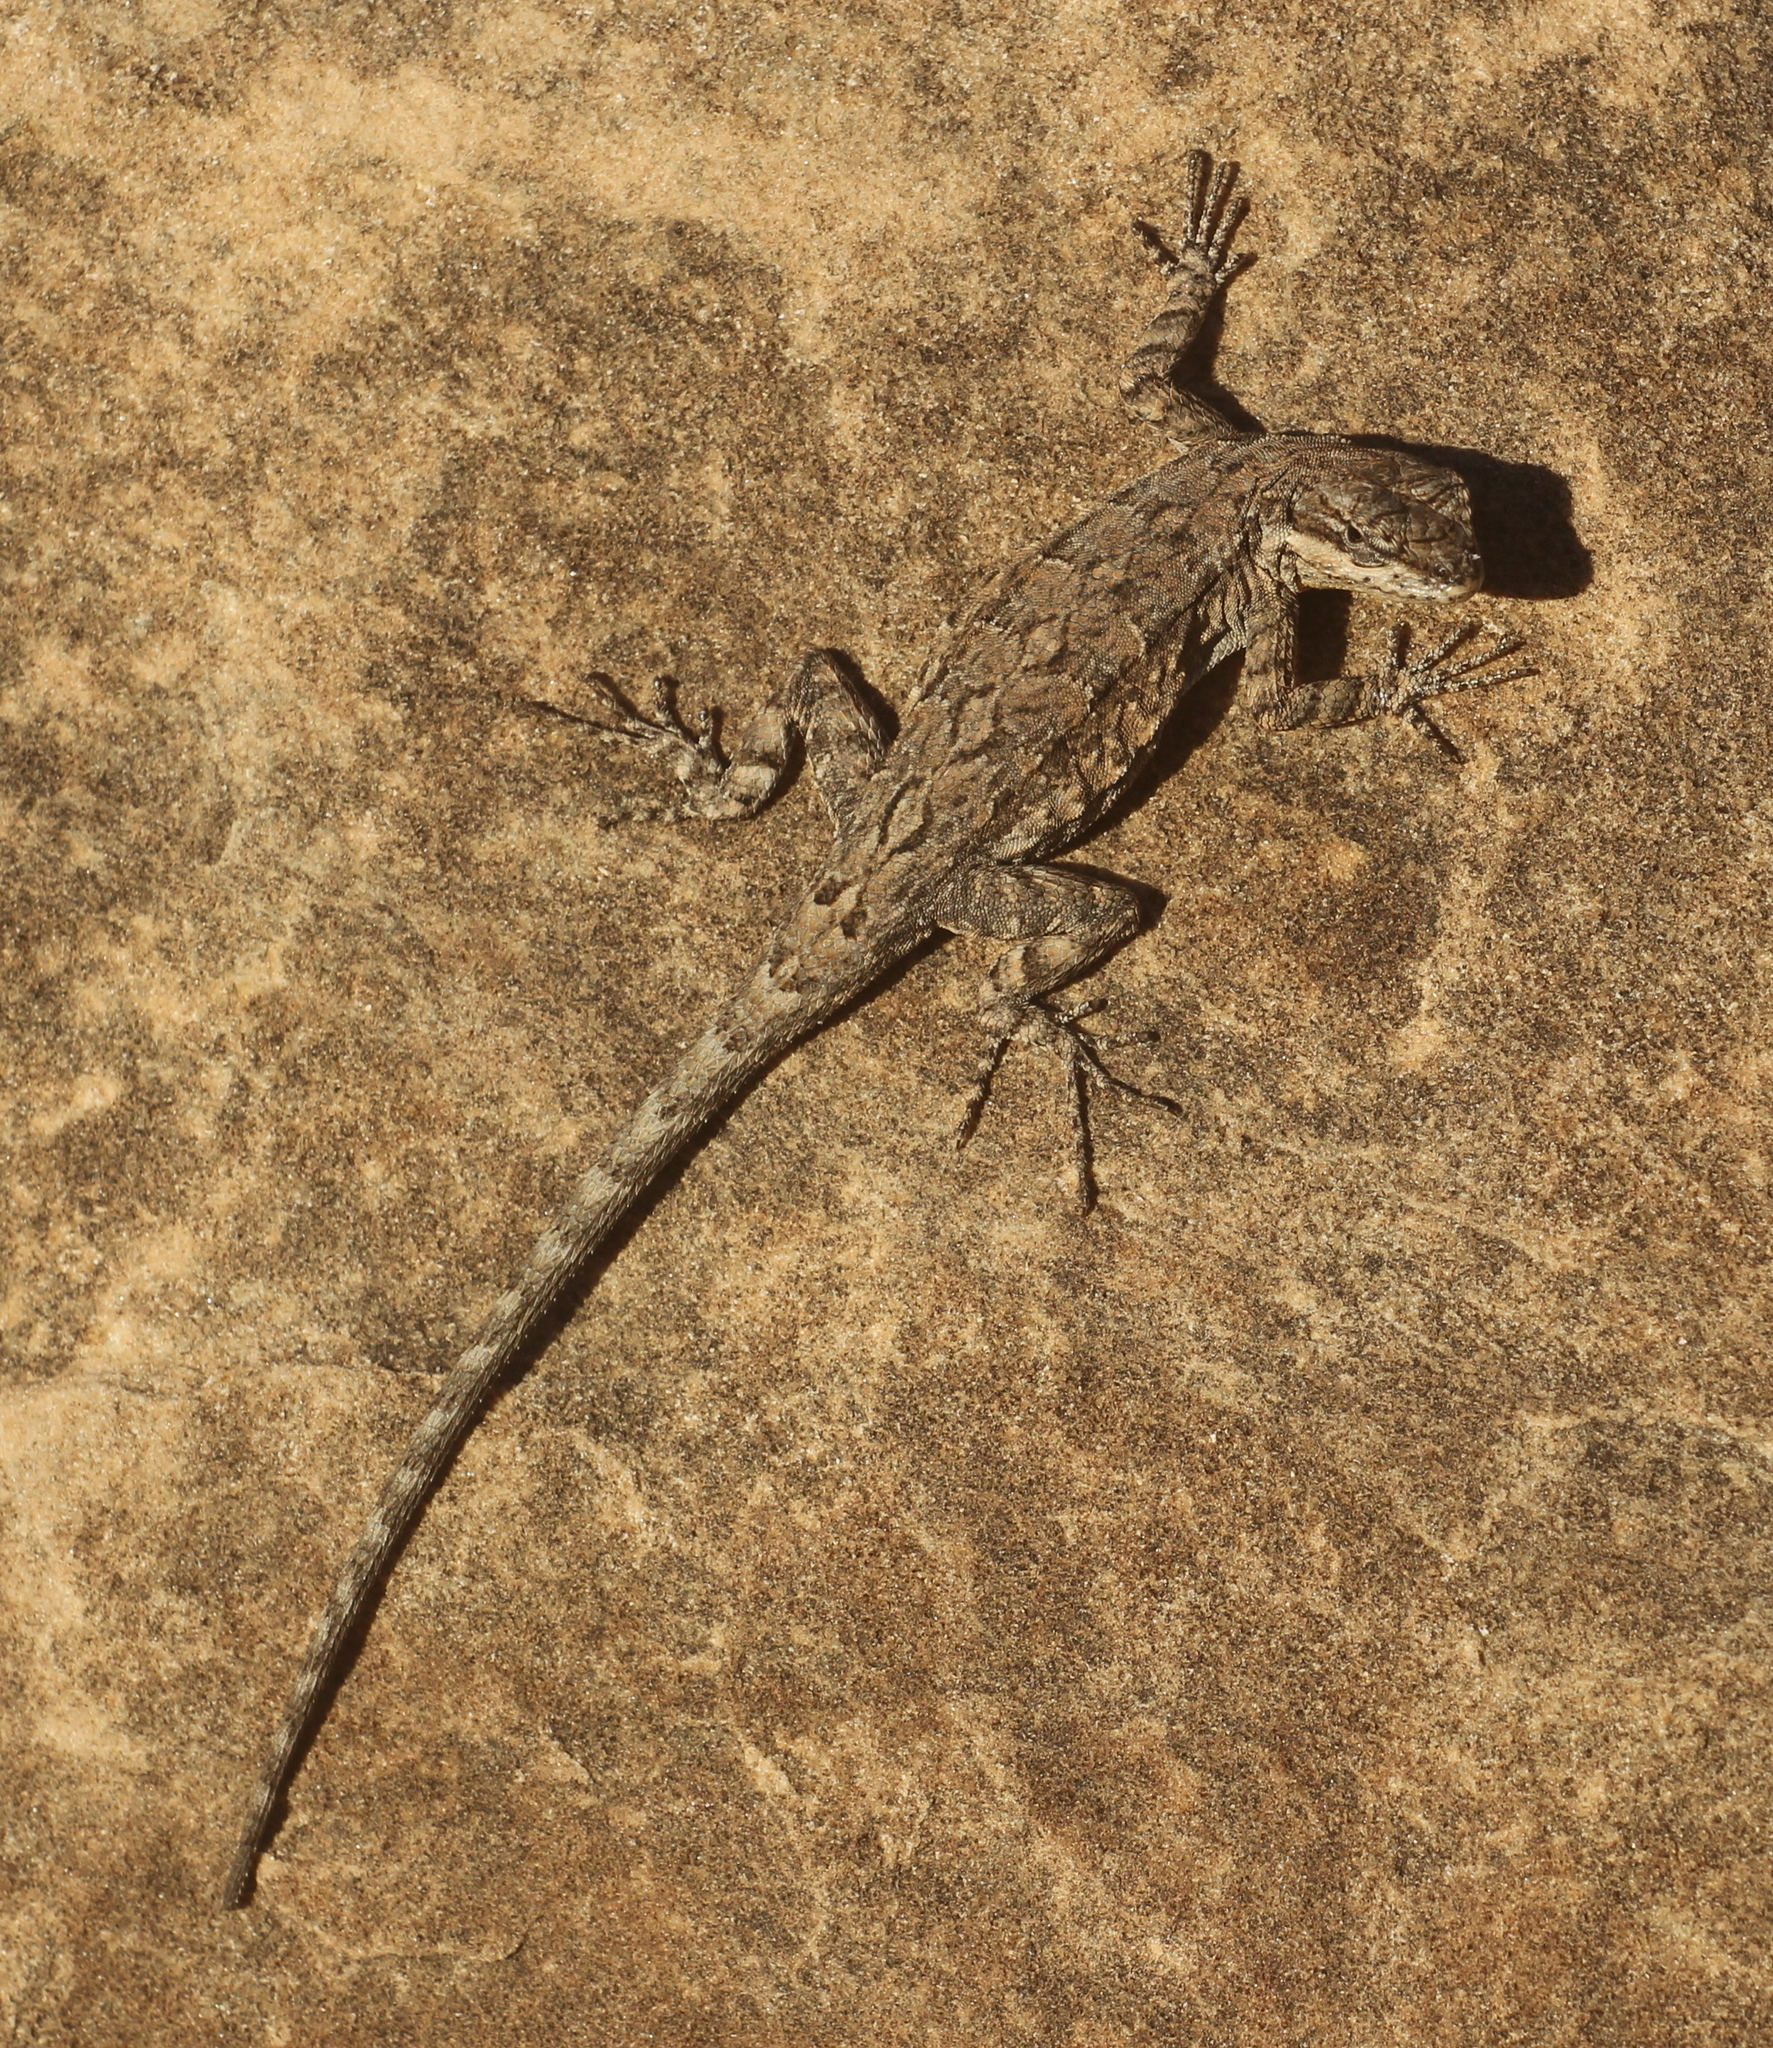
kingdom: Animalia
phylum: Chordata
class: Squamata
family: Phrynosomatidae
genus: Urosaurus
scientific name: Urosaurus ornatus
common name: Ornate tree lizard
